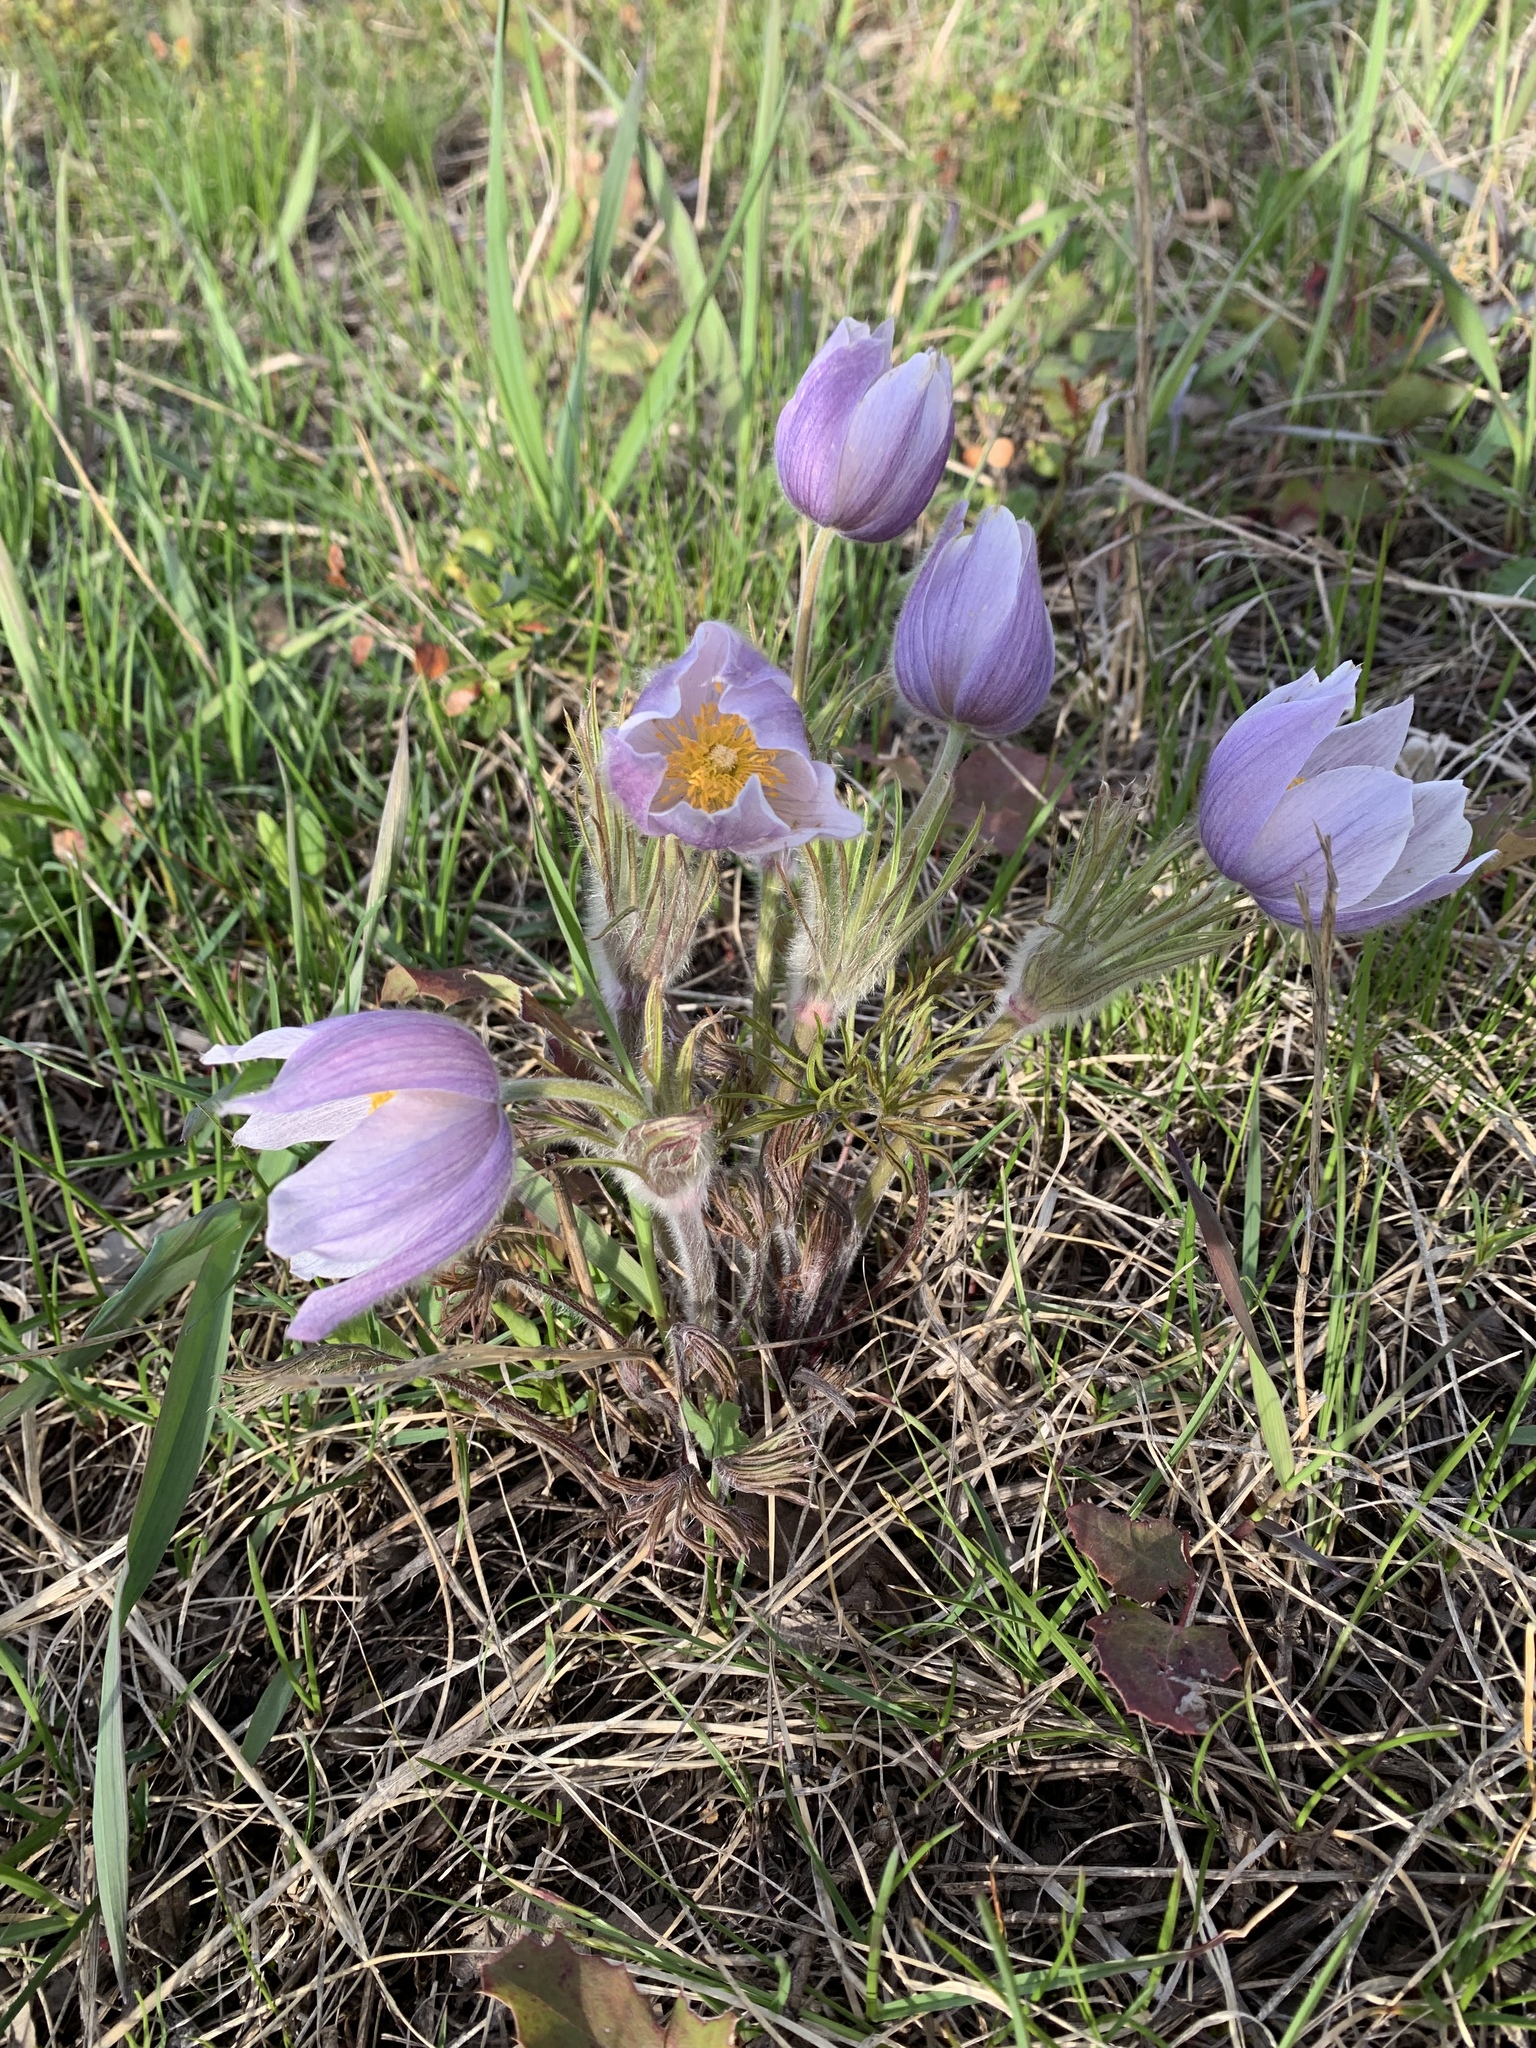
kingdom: Plantae
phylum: Tracheophyta
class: Magnoliopsida
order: Ranunculales
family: Ranunculaceae
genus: Pulsatilla
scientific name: Pulsatilla nuttalliana
